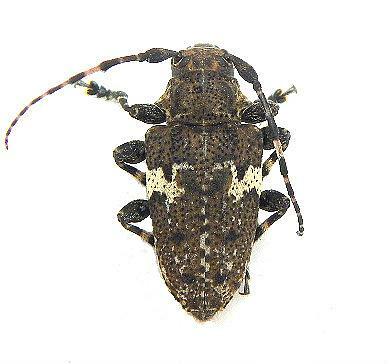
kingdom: Animalia
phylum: Arthropoda
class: Insecta
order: Coleoptera
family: Cerambycidae
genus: Acanthoderes
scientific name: Acanthoderes quadrigibba
